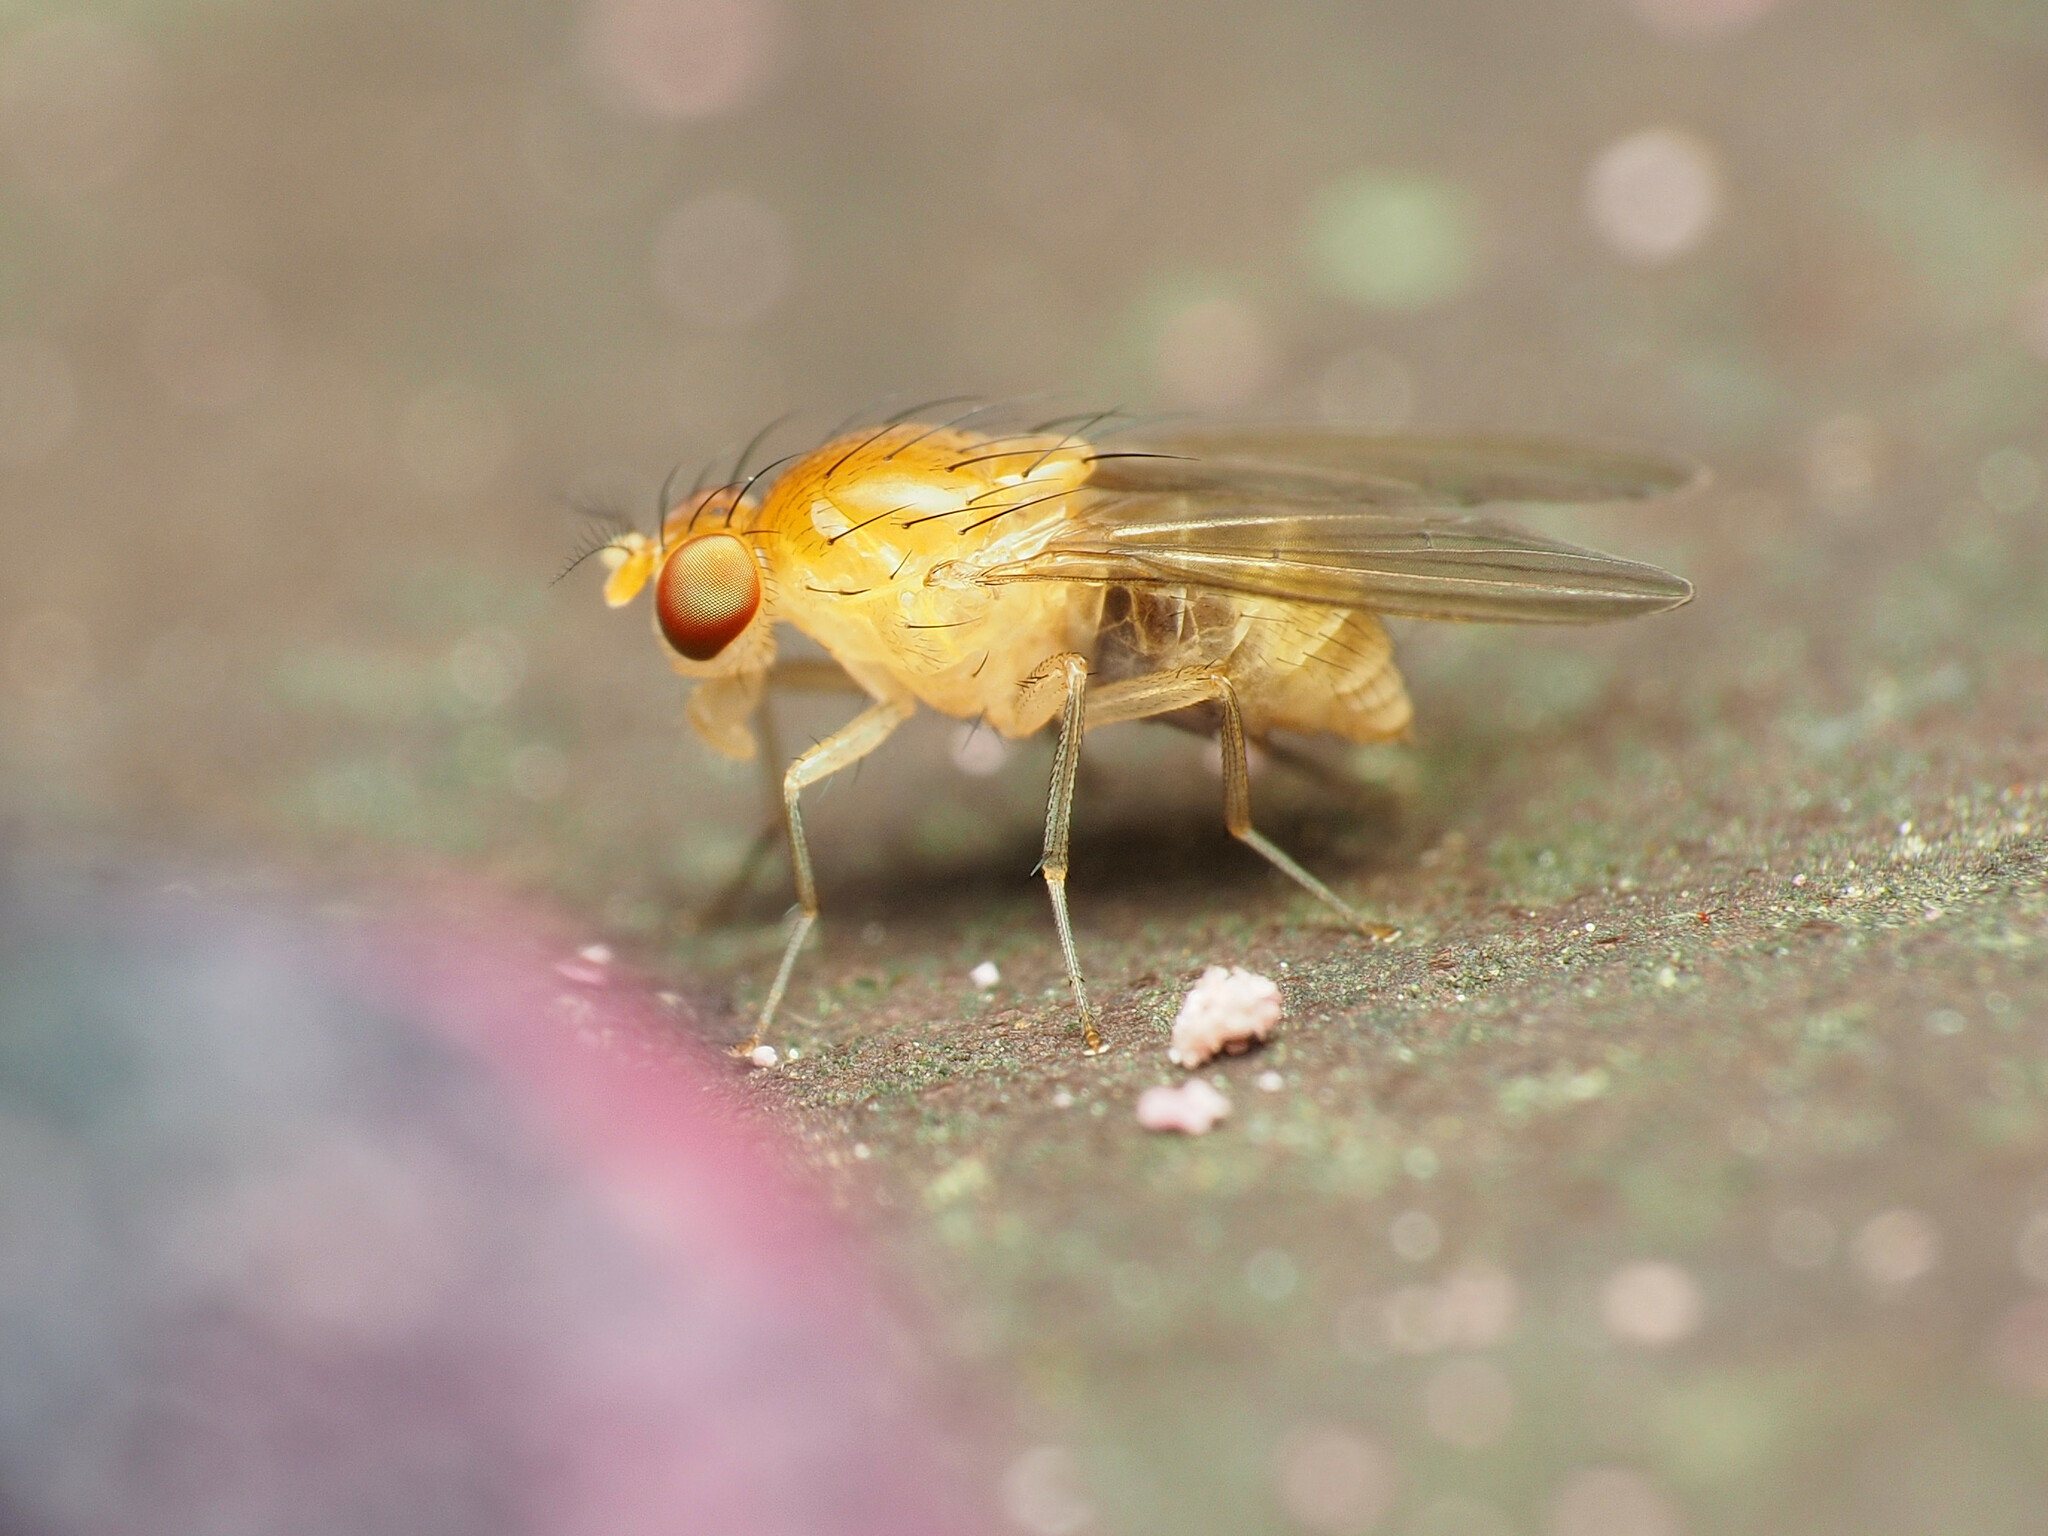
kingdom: Animalia
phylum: Arthropoda
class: Insecta
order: Diptera
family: Lauxaniidae
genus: Neogriphoneura
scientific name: Neogriphoneura sordida
